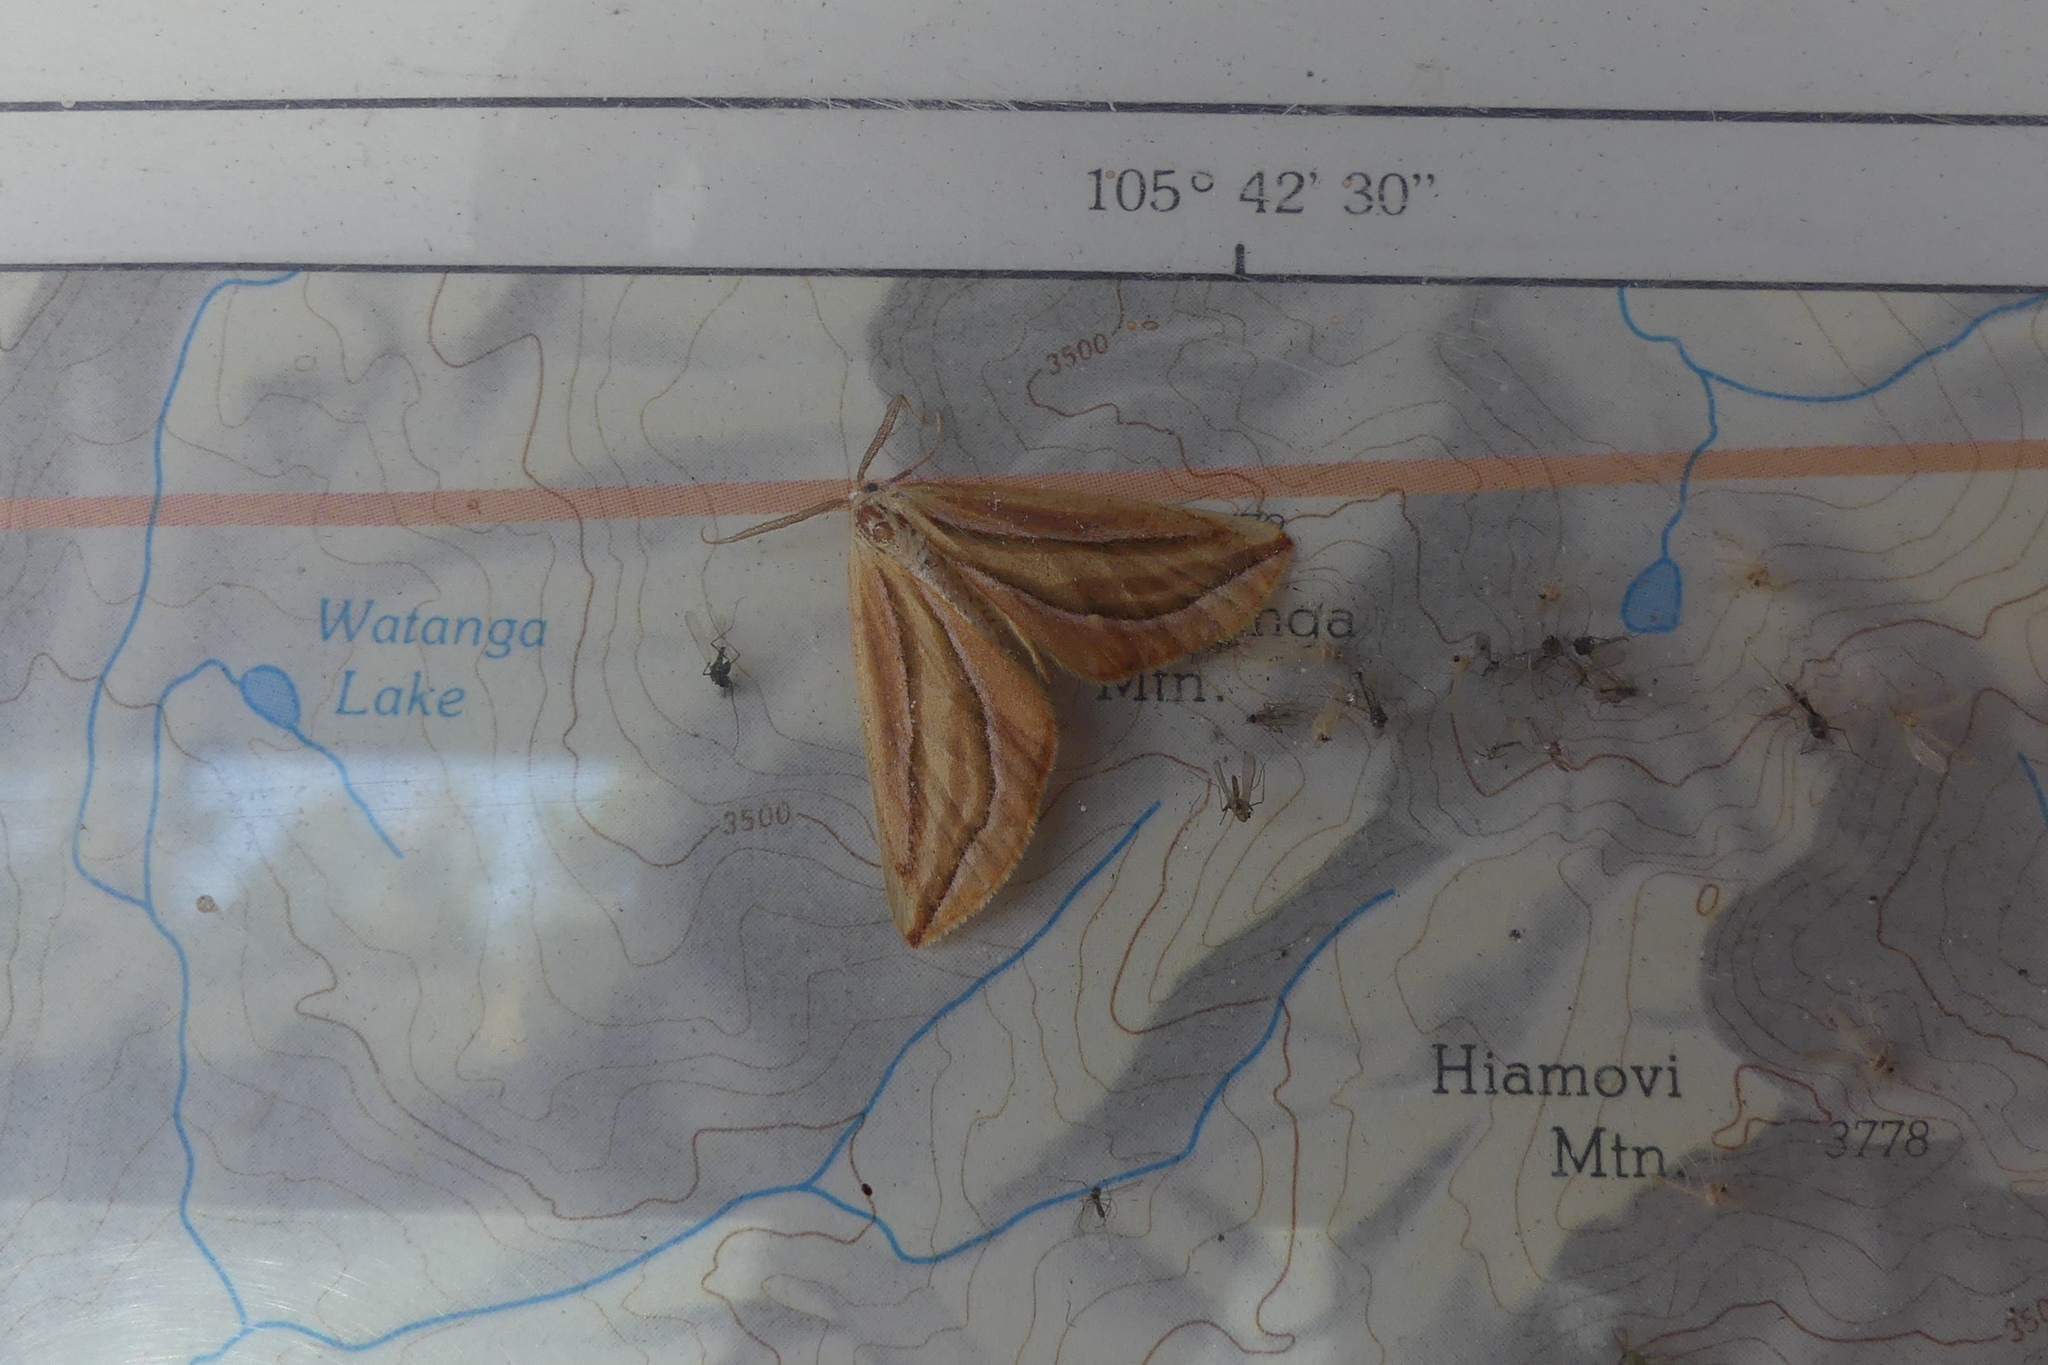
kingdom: Animalia
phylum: Arthropoda
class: Insecta
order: Lepidoptera
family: Geometridae
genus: Melemaea
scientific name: Melemaea magdalena
